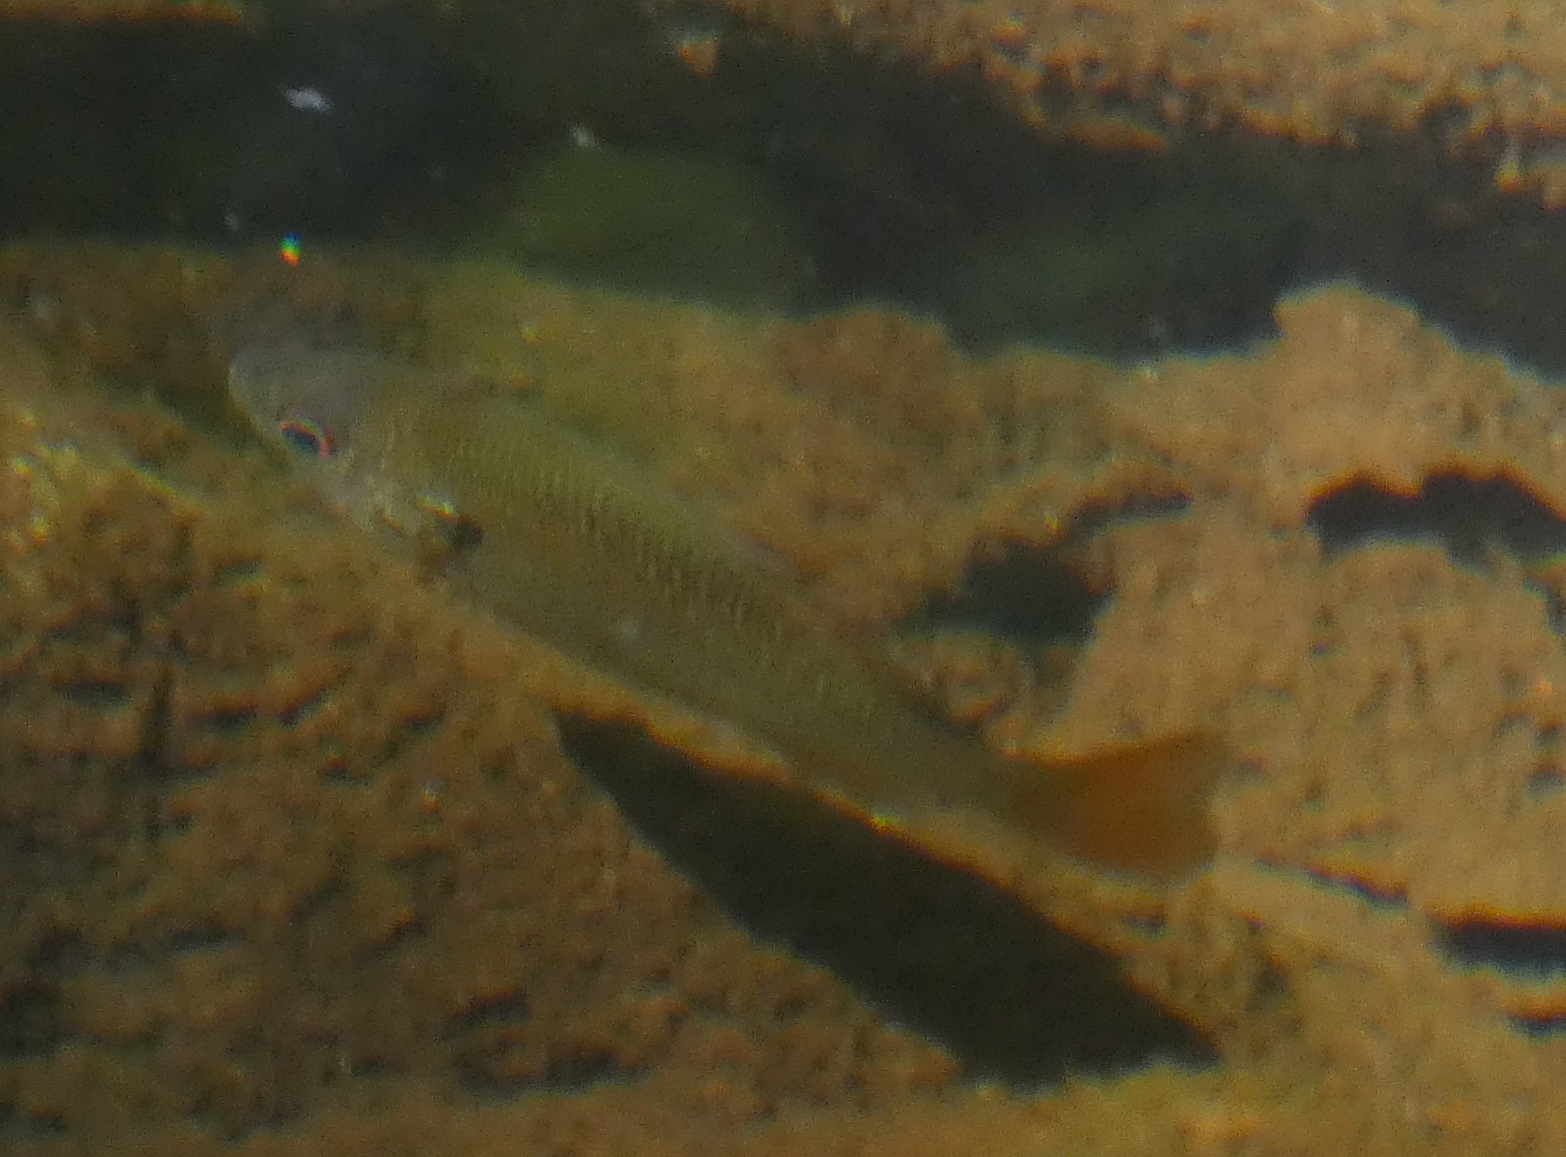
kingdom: Animalia
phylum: Chordata
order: Perciformes
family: Centrarchidae
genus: Lepomis
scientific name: Lepomis auritus
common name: Redbreast sunfish
